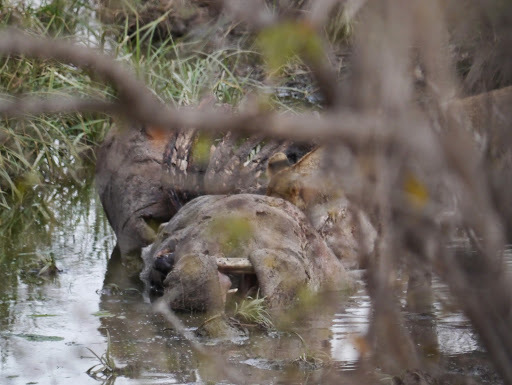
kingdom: Animalia
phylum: Chordata
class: Mammalia
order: Carnivora
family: Felidae
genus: Panthera
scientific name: Panthera leo
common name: Lion
